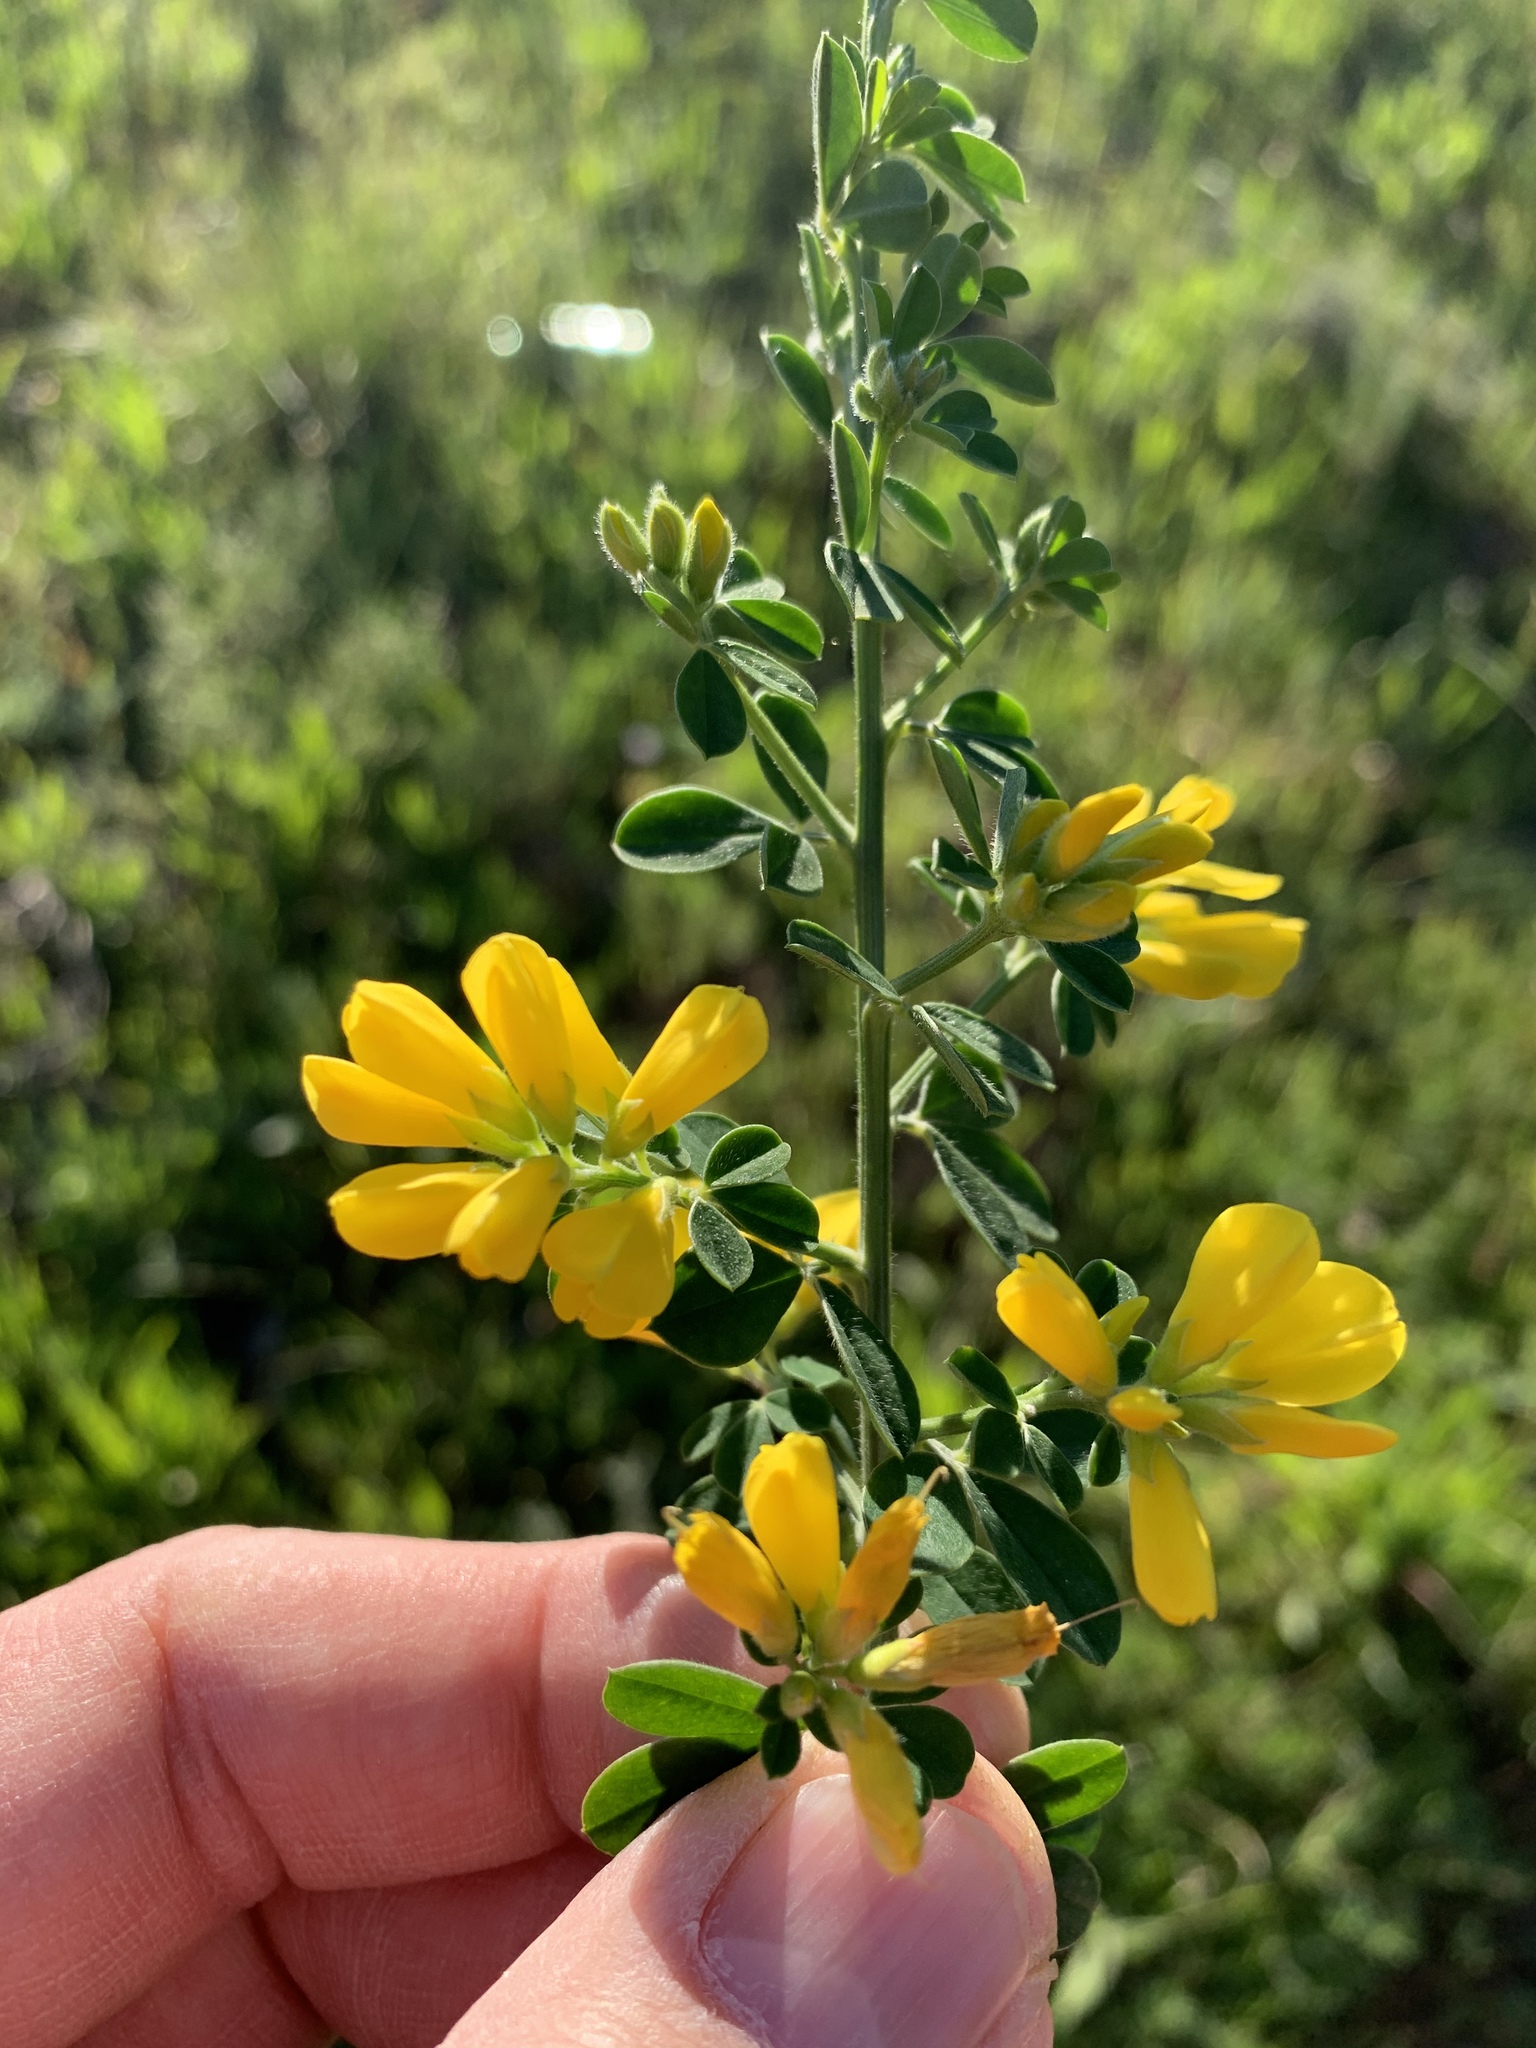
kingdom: Plantae
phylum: Tracheophyta
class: Magnoliopsida
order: Fabales
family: Fabaceae
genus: Genista
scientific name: Genista monspessulana
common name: Montpellier broom
